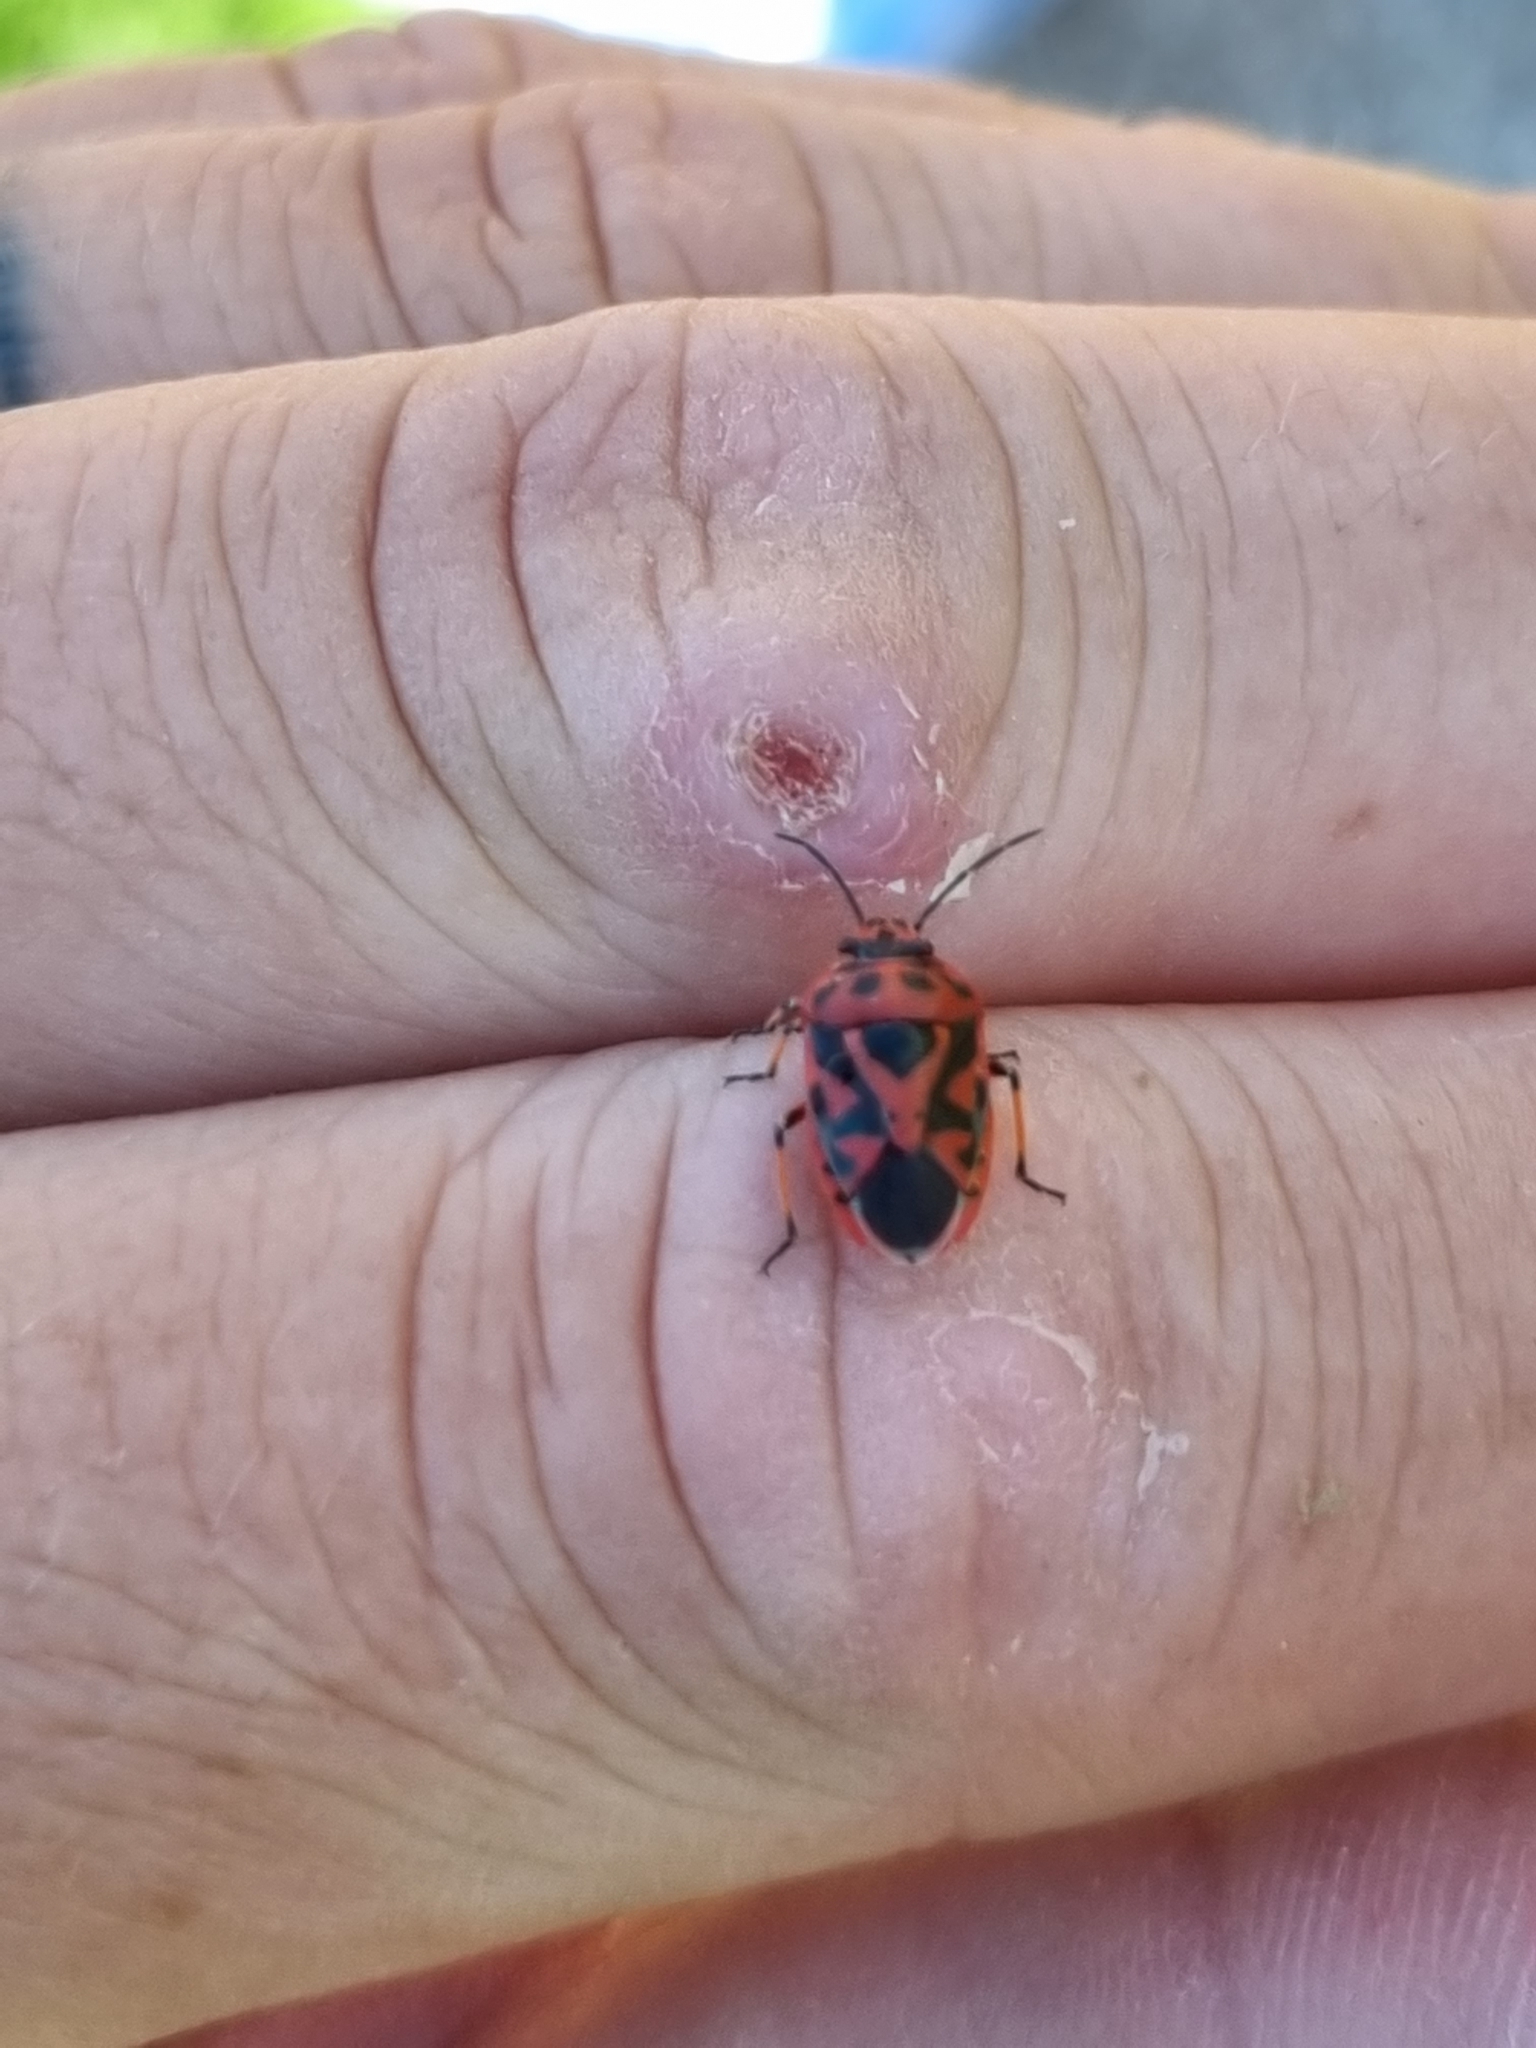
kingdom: Animalia
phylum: Arthropoda
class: Insecta
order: Hemiptera
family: Pentatomidae
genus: Eurydema
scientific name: Eurydema ornata
